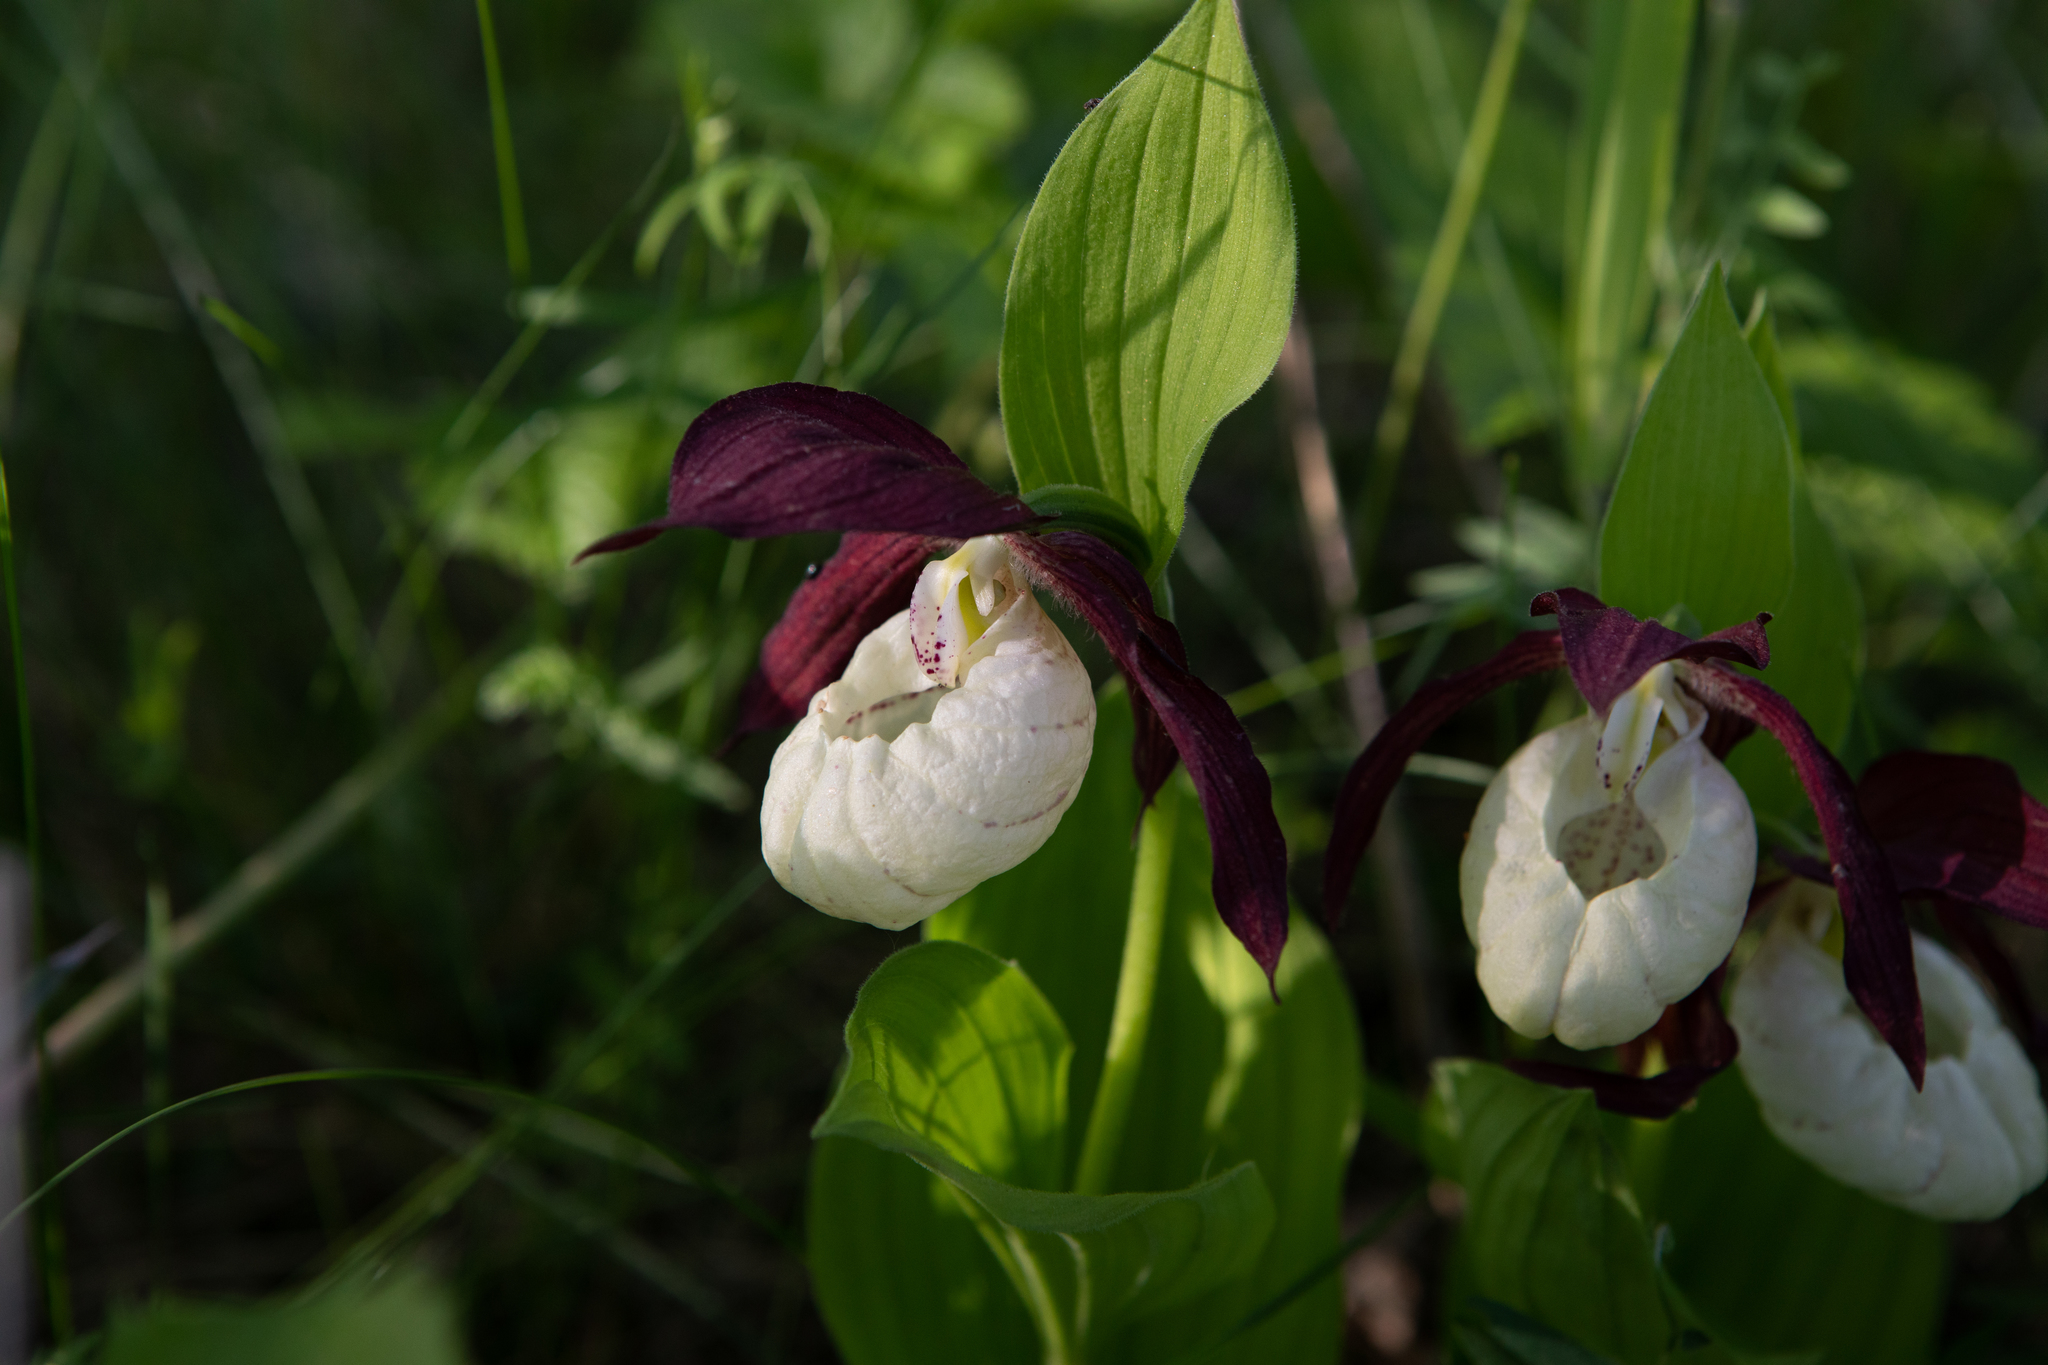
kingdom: Plantae
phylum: Tracheophyta
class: Liliopsida
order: Asparagales
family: Orchidaceae
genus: Cypripedium
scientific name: Cypripedium ventricosum
